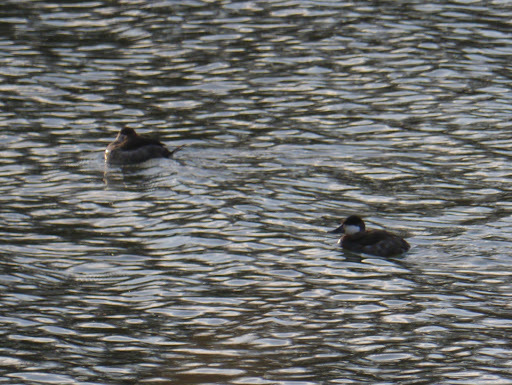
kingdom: Animalia
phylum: Chordata
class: Aves
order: Anseriformes
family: Anatidae
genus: Oxyura
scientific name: Oxyura jamaicensis
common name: Ruddy duck
